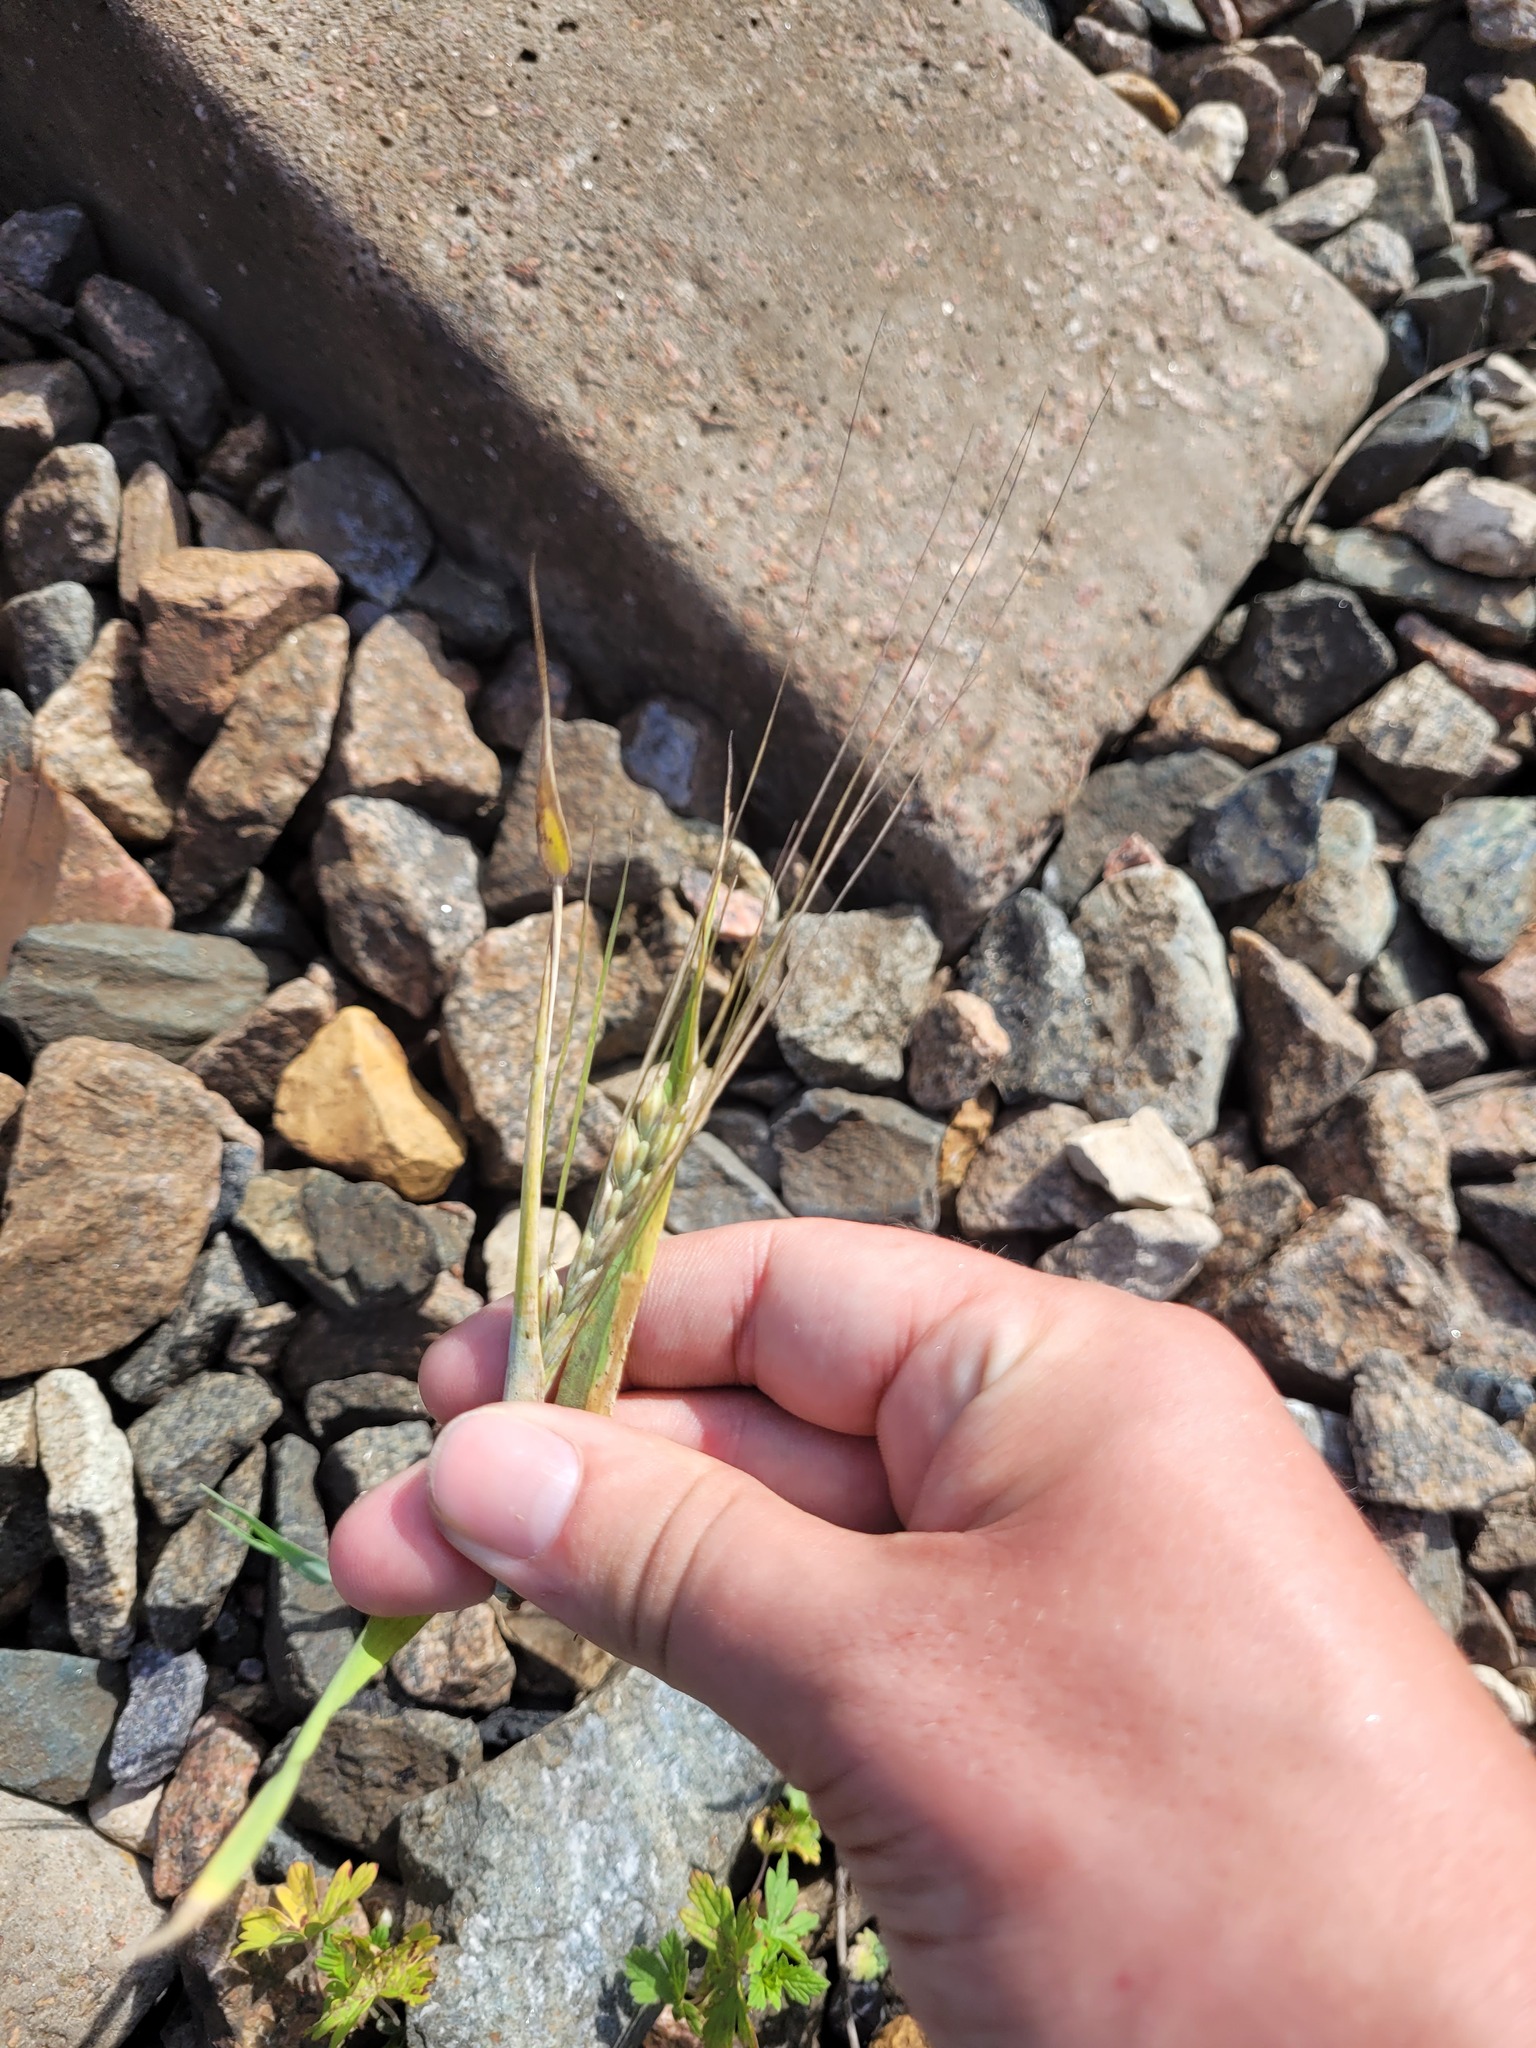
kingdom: Plantae
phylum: Tracheophyta
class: Liliopsida
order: Poales
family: Poaceae
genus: Hordeum
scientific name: Hordeum vulgare
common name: Common barley
